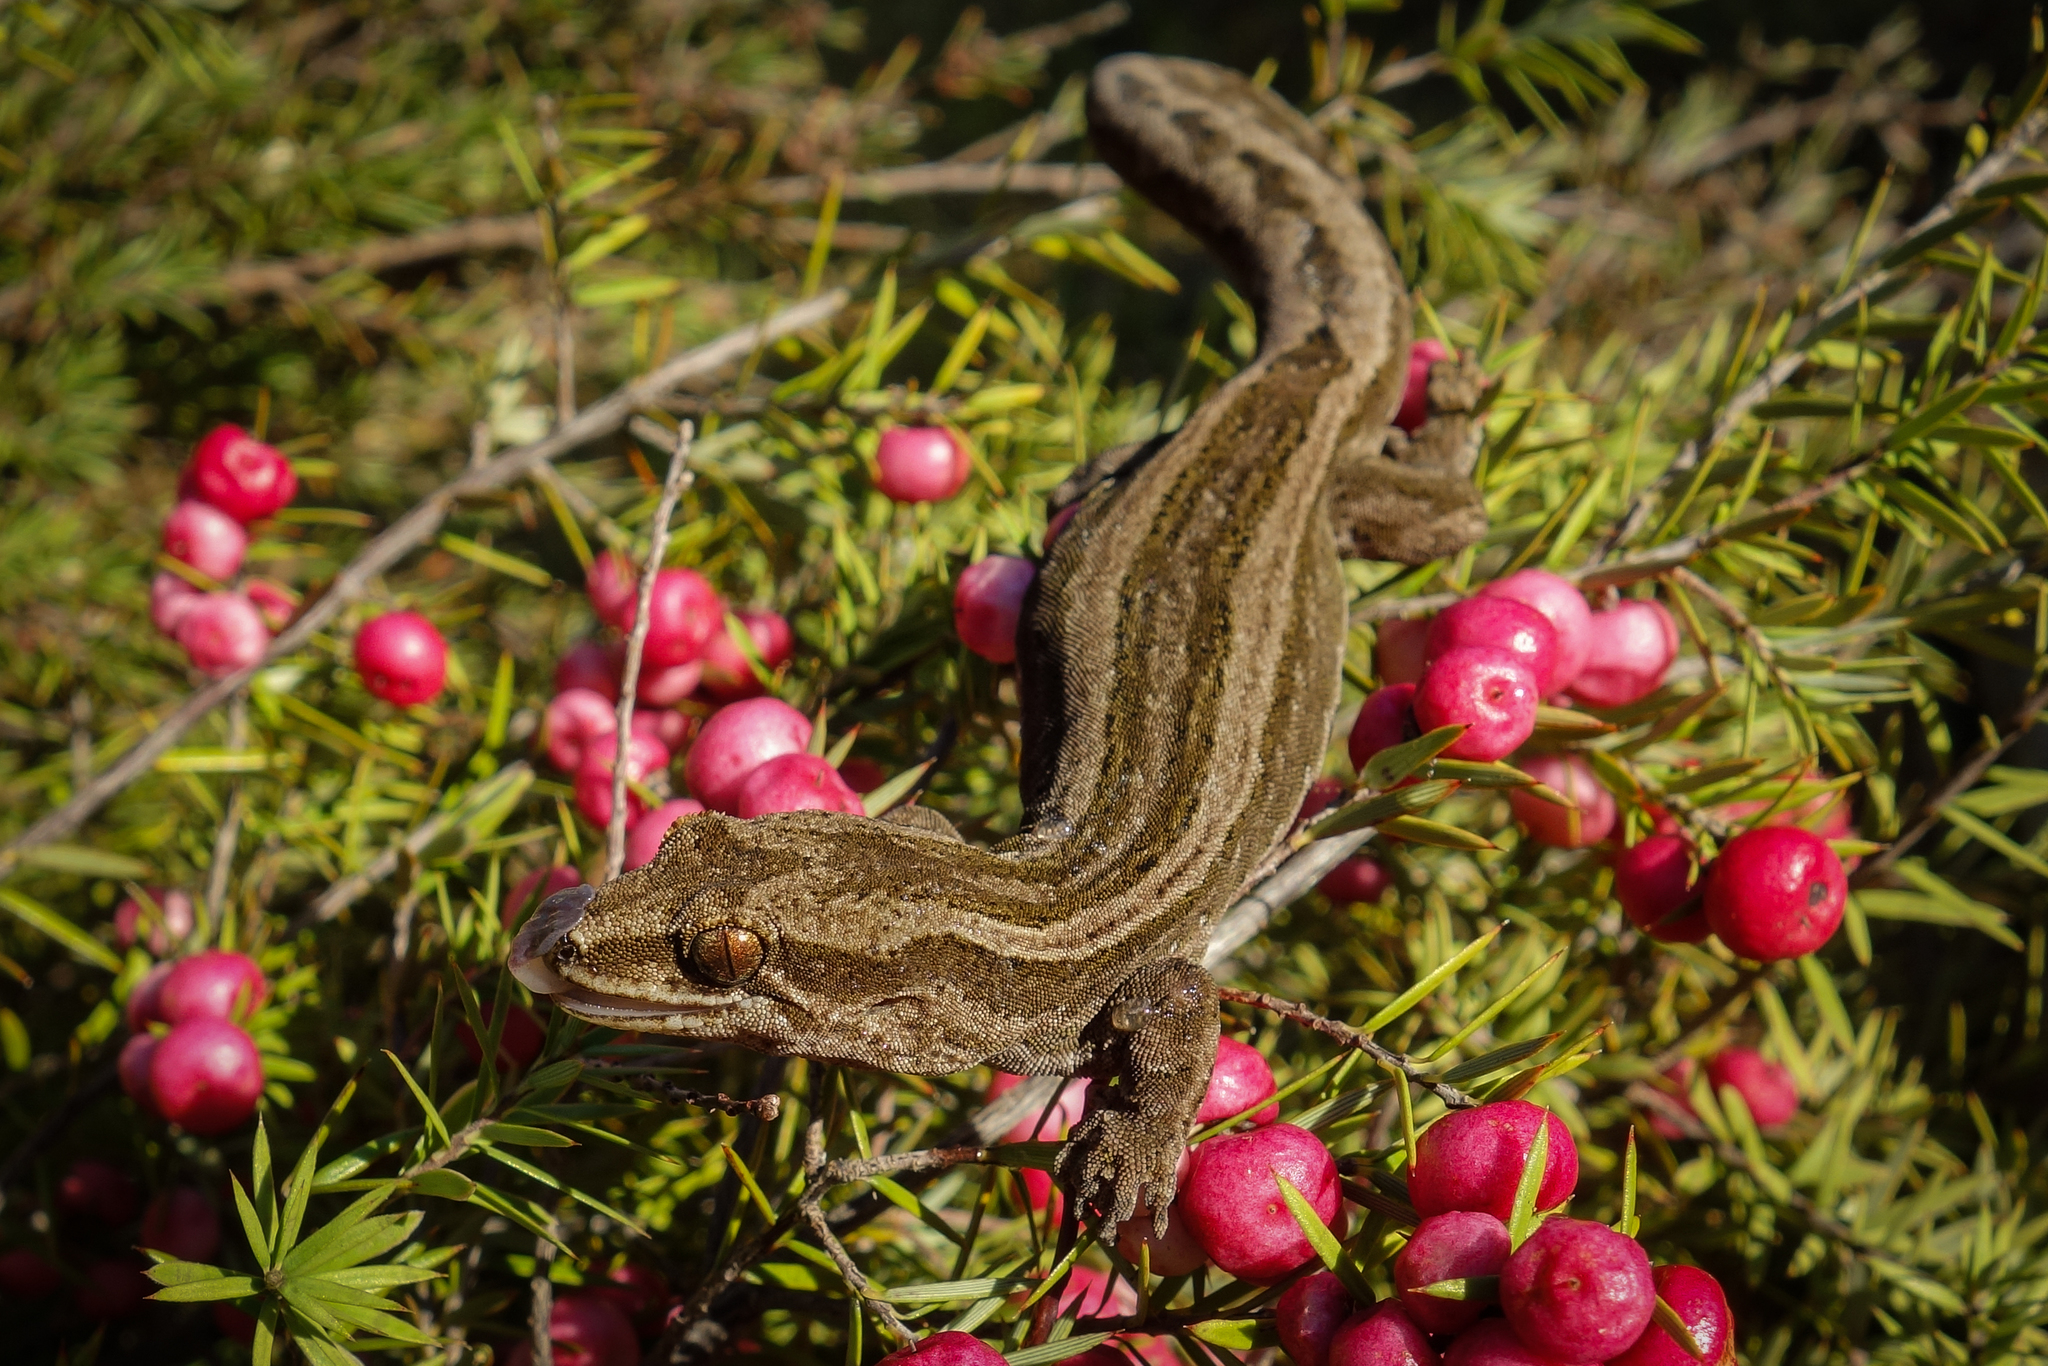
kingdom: Animalia
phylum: Chordata
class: Squamata
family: Diplodactylidae
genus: Dactylocnemis
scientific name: Dactylocnemis
